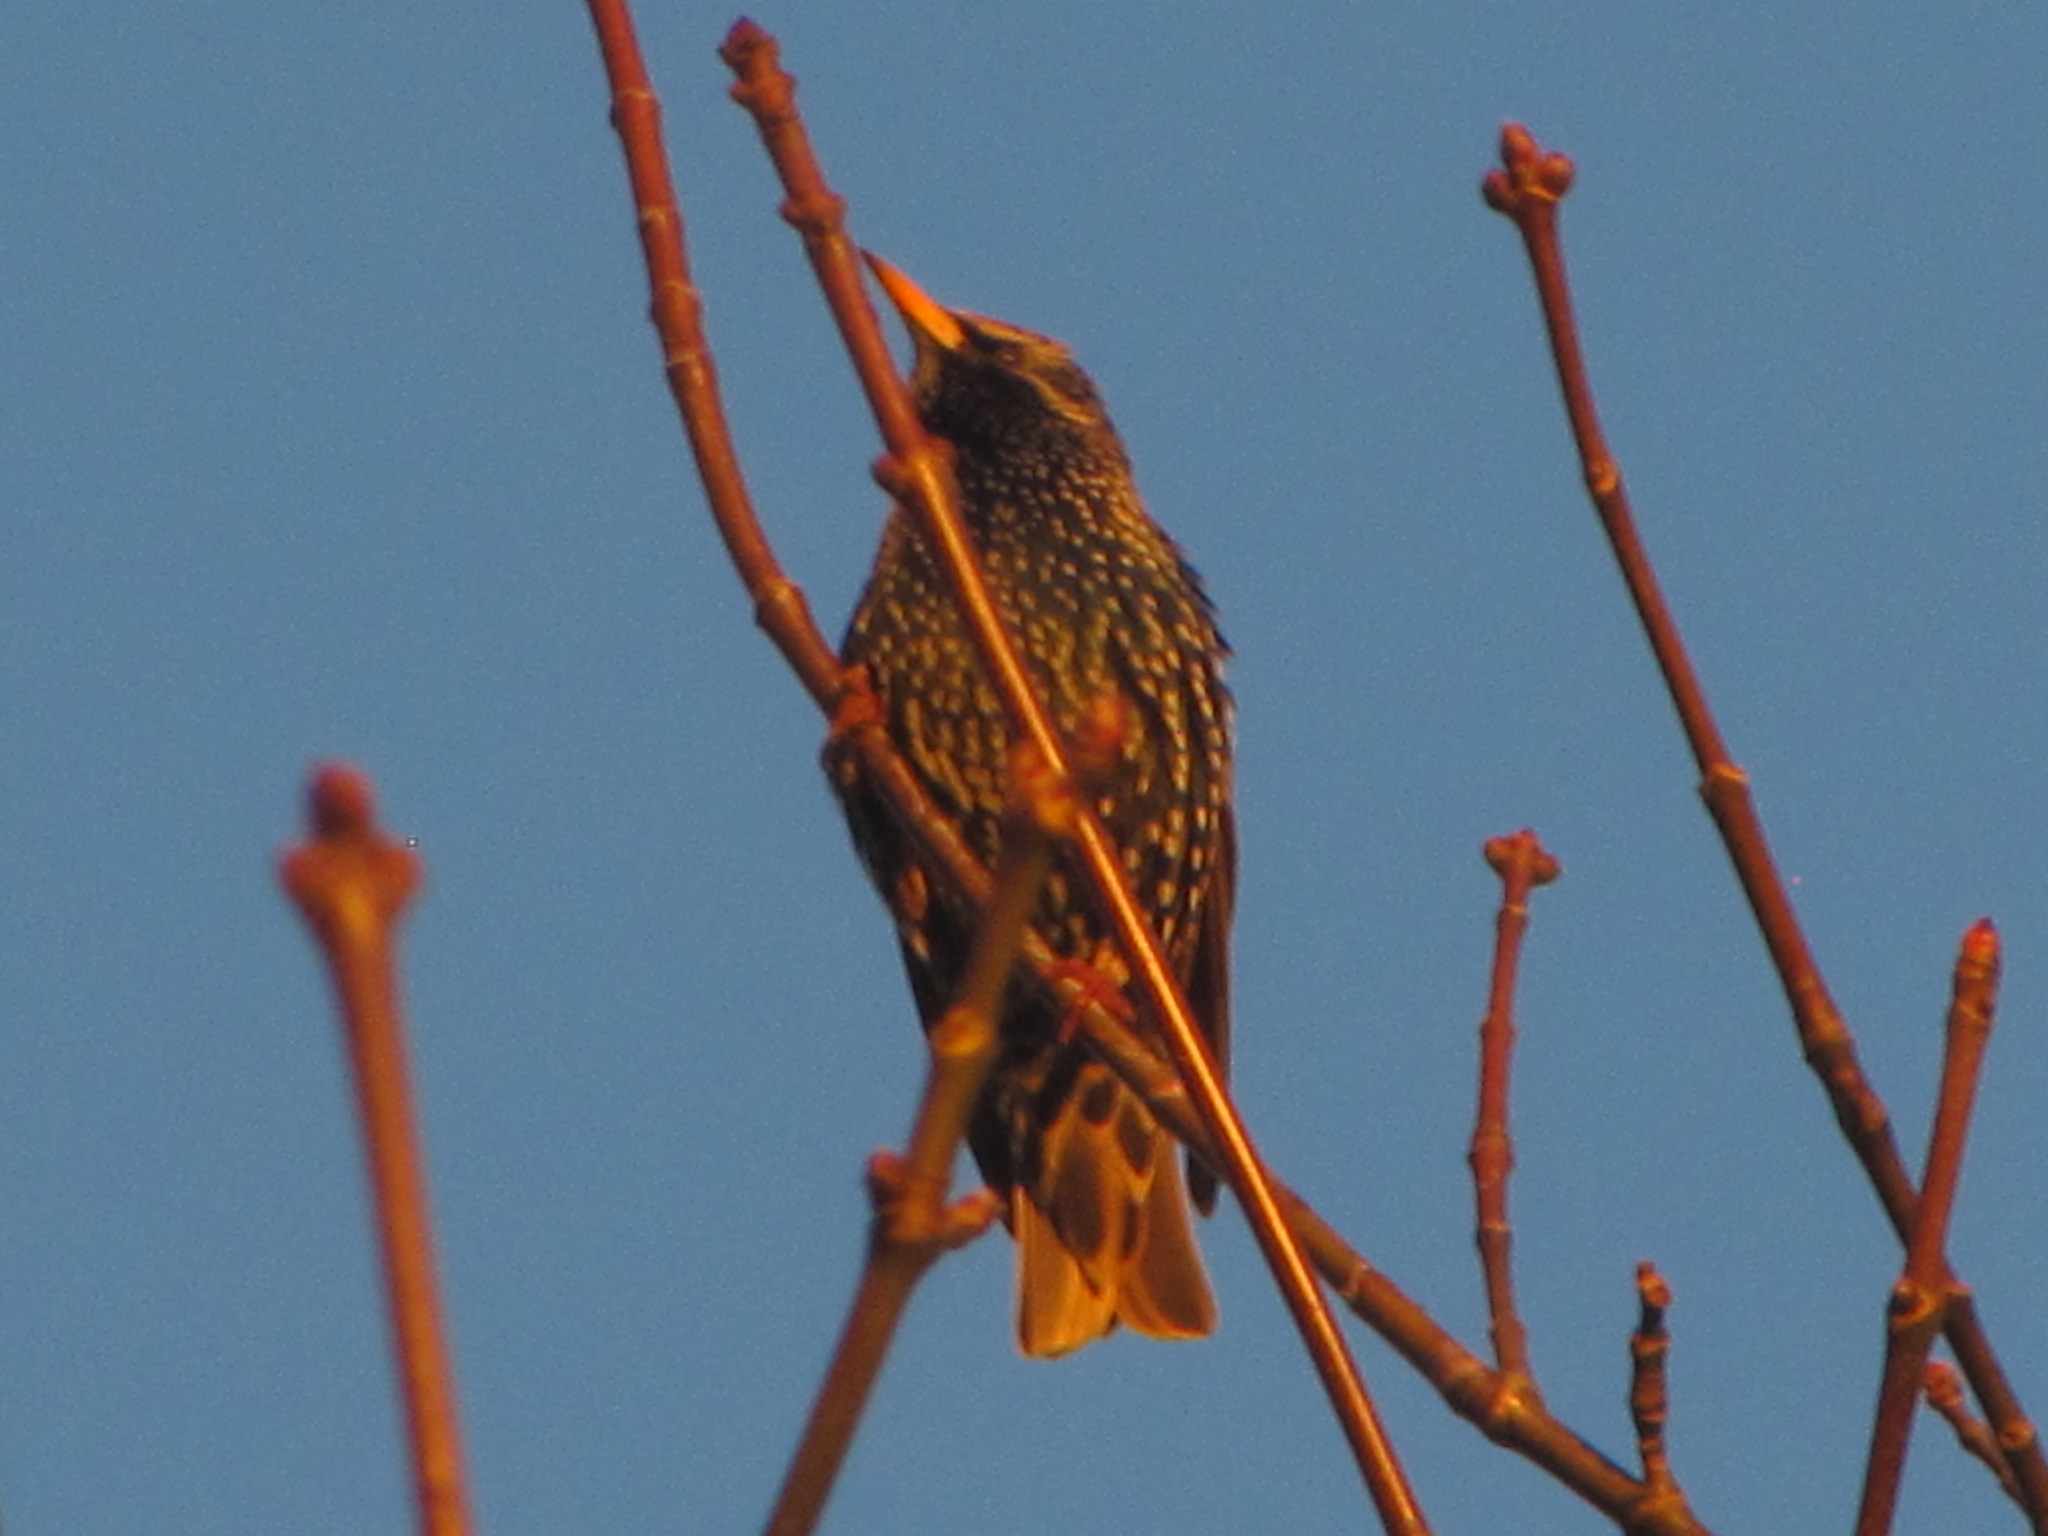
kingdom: Animalia
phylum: Chordata
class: Aves
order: Passeriformes
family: Sturnidae
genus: Sturnus
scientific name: Sturnus vulgaris
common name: Common starling
